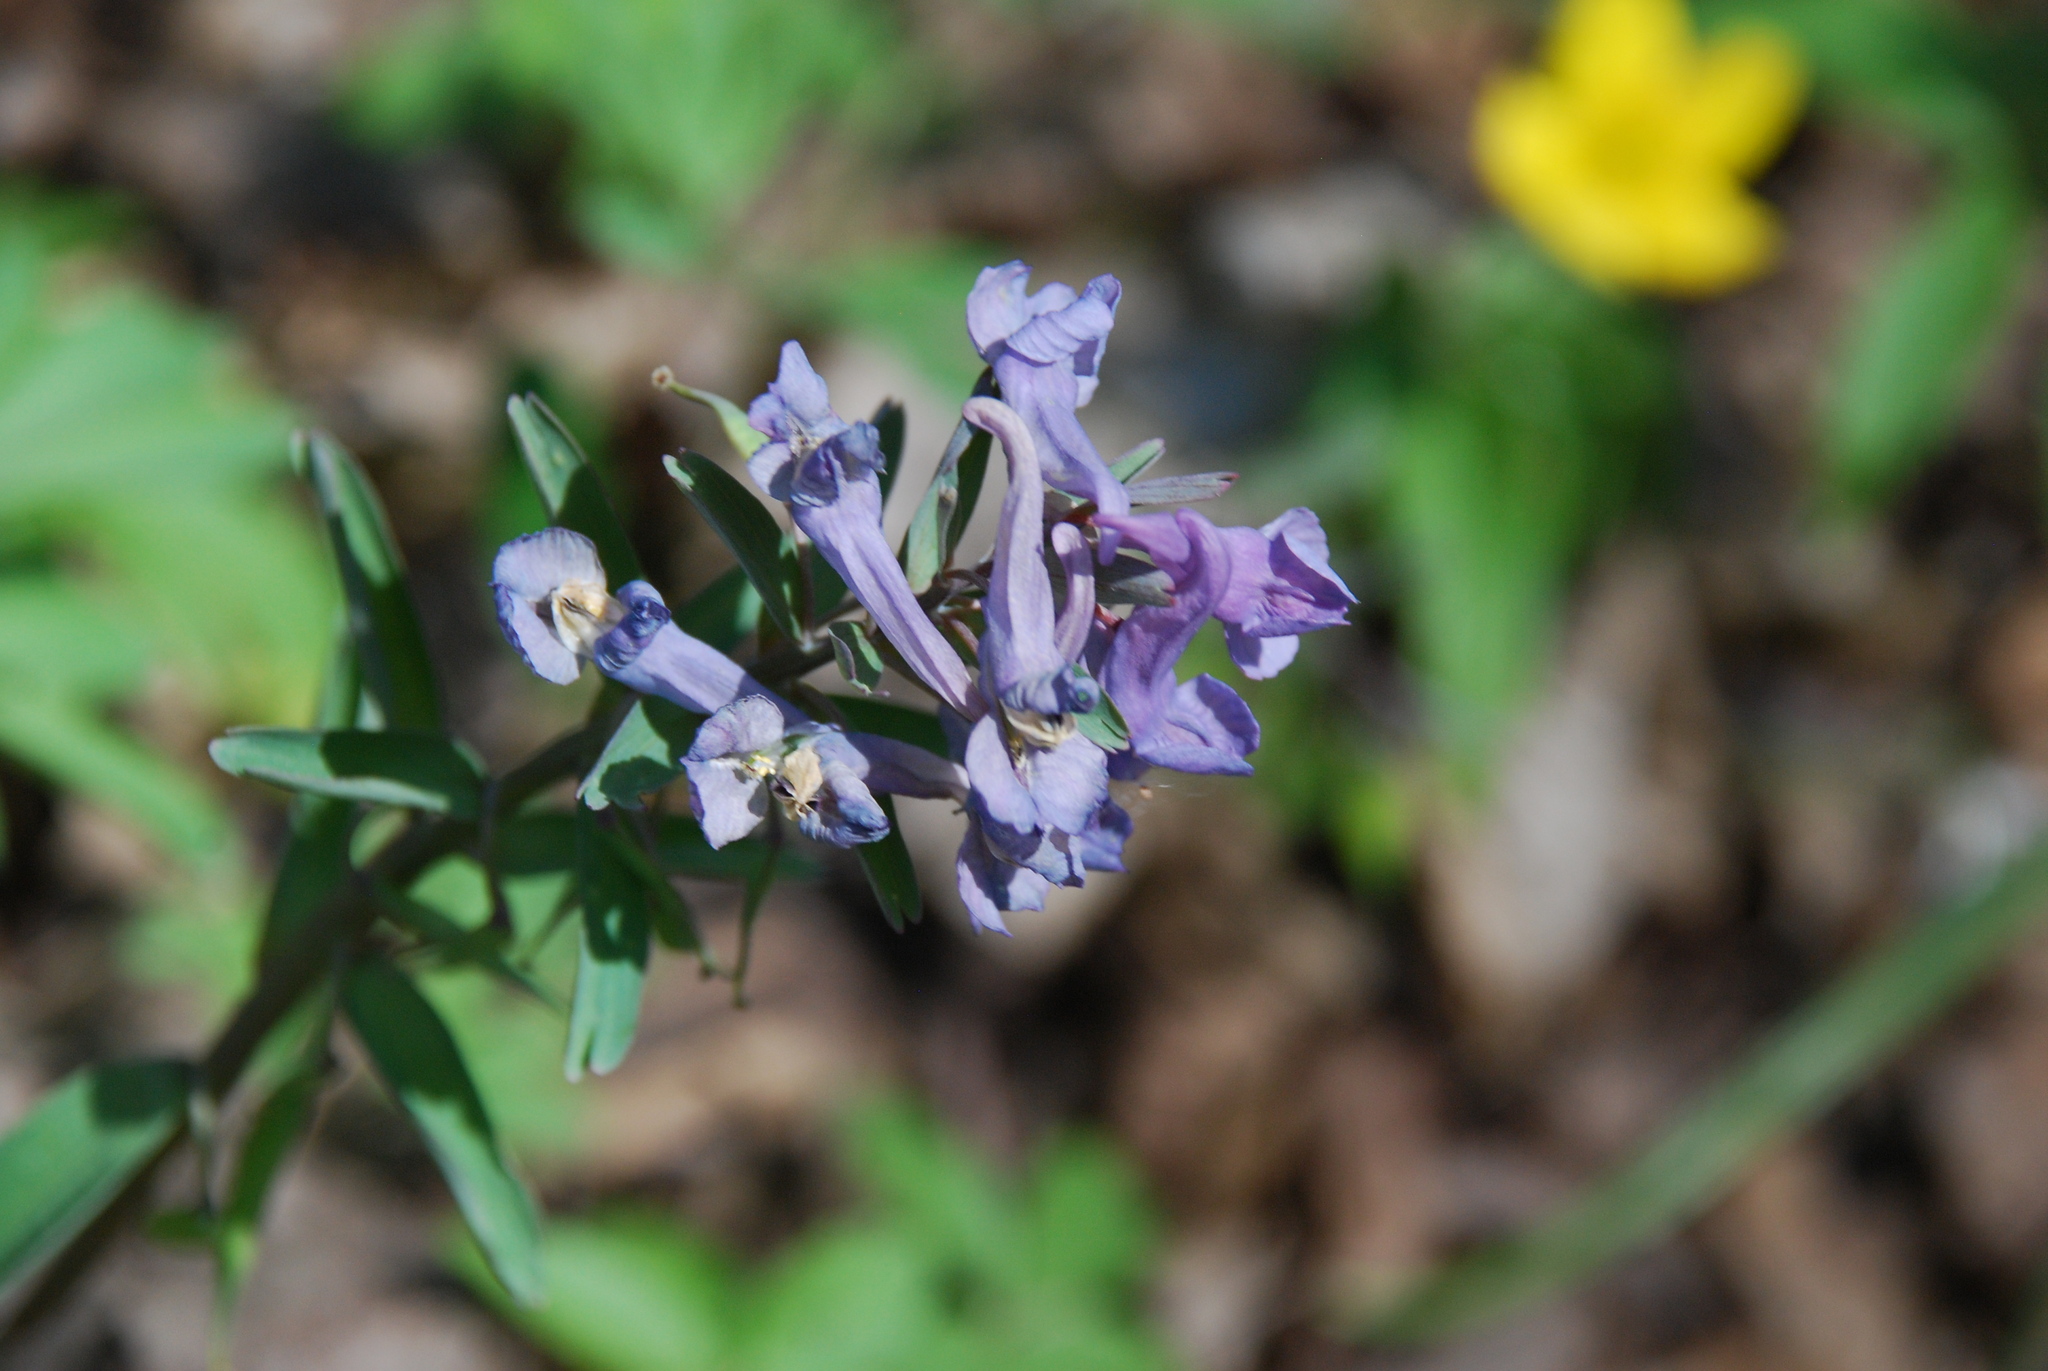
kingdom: Plantae
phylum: Tracheophyta
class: Magnoliopsida
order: Ranunculales
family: Papaveraceae
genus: Corydalis
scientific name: Corydalis solida
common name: Bird-in-a-bush
